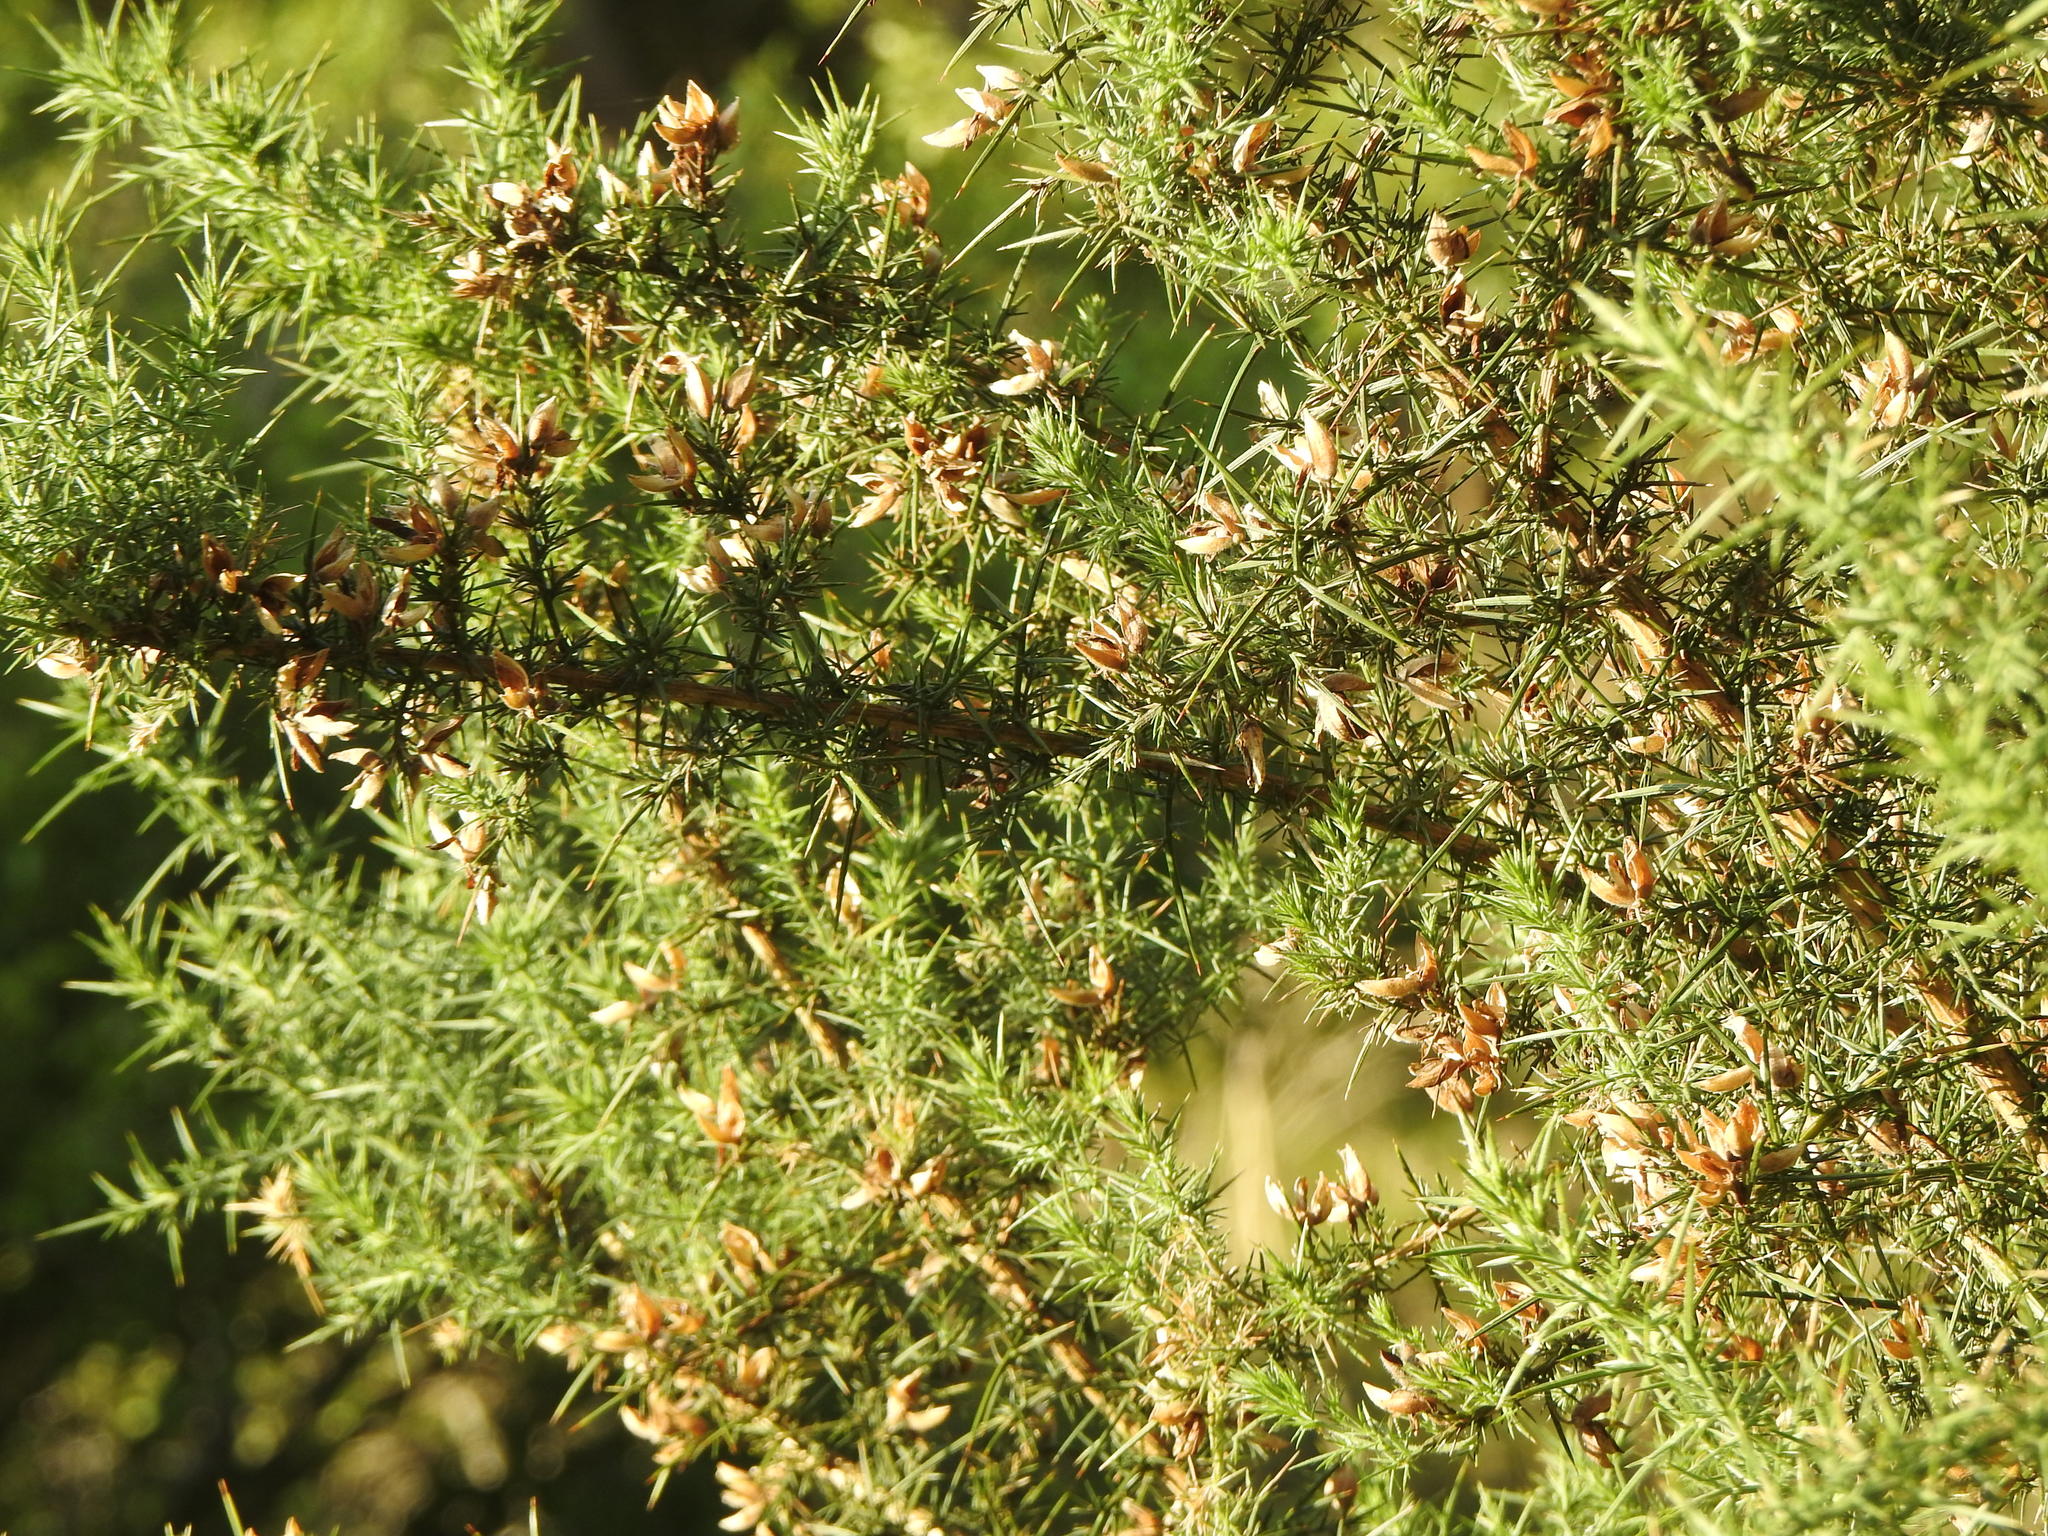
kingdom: Plantae
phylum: Tracheophyta
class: Magnoliopsida
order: Fabales
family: Fabaceae
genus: Ulex
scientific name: Ulex europaeus
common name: Common gorse
